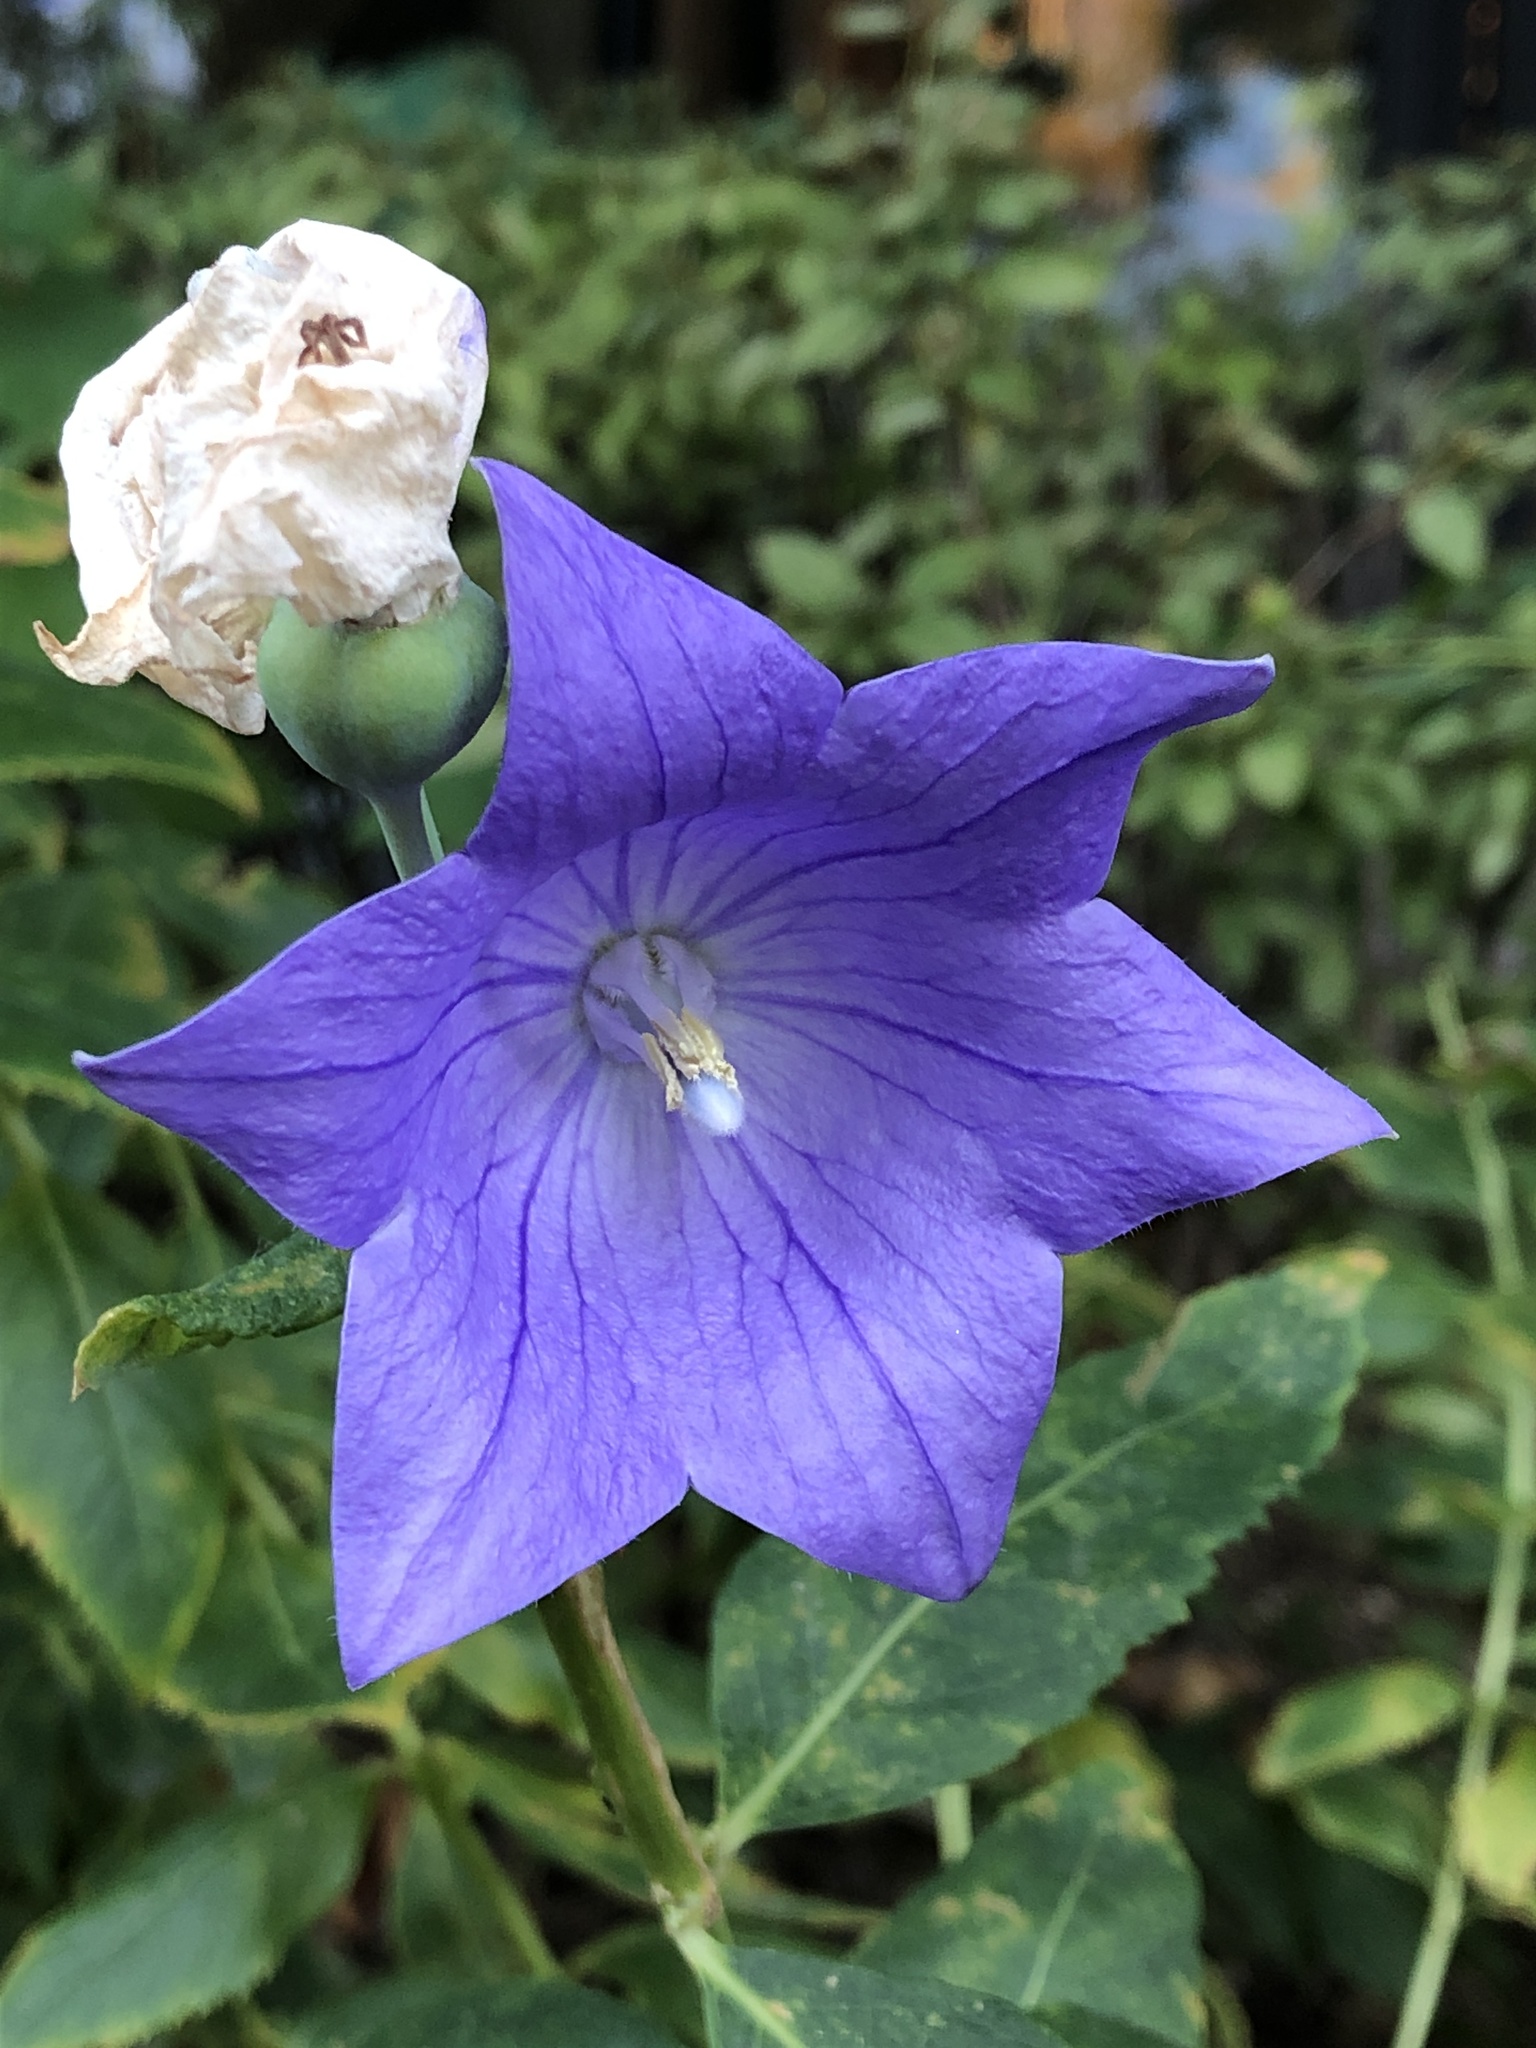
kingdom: Plantae
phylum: Tracheophyta
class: Magnoliopsida
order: Asterales
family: Campanulaceae
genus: Platycodon
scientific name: Platycodon grandiflorus
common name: Balloon-flower
